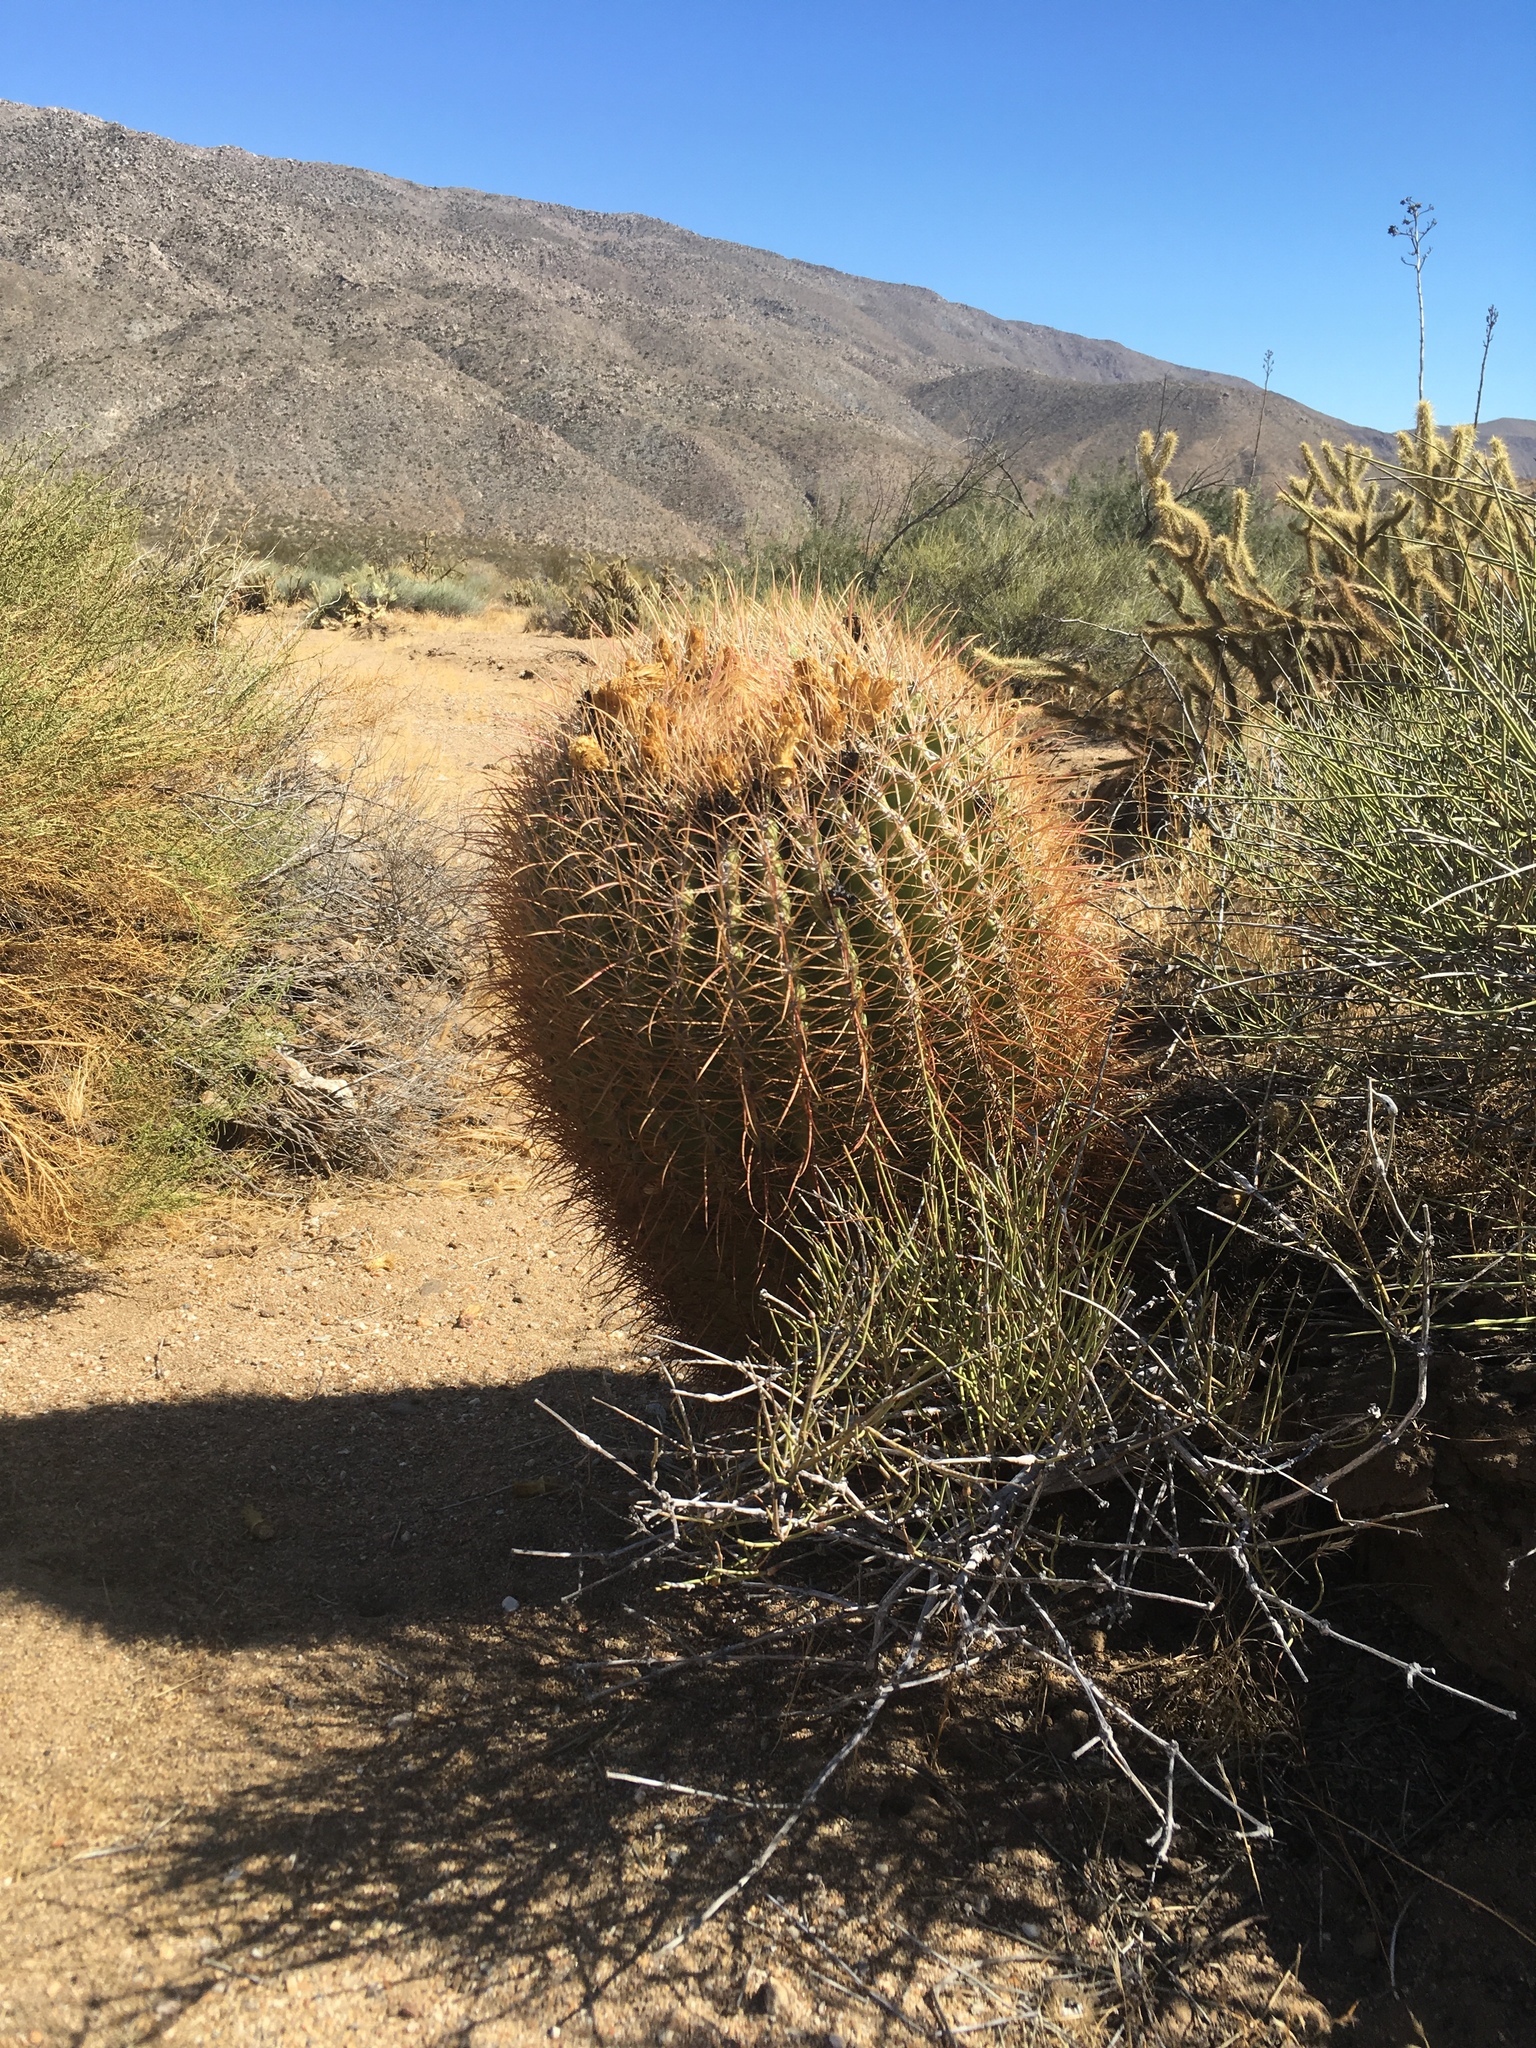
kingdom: Plantae
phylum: Tracheophyta
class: Magnoliopsida
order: Caryophyllales
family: Cactaceae
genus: Ferocactus
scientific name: Ferocactus cylindraceus
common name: California barrel cactus
